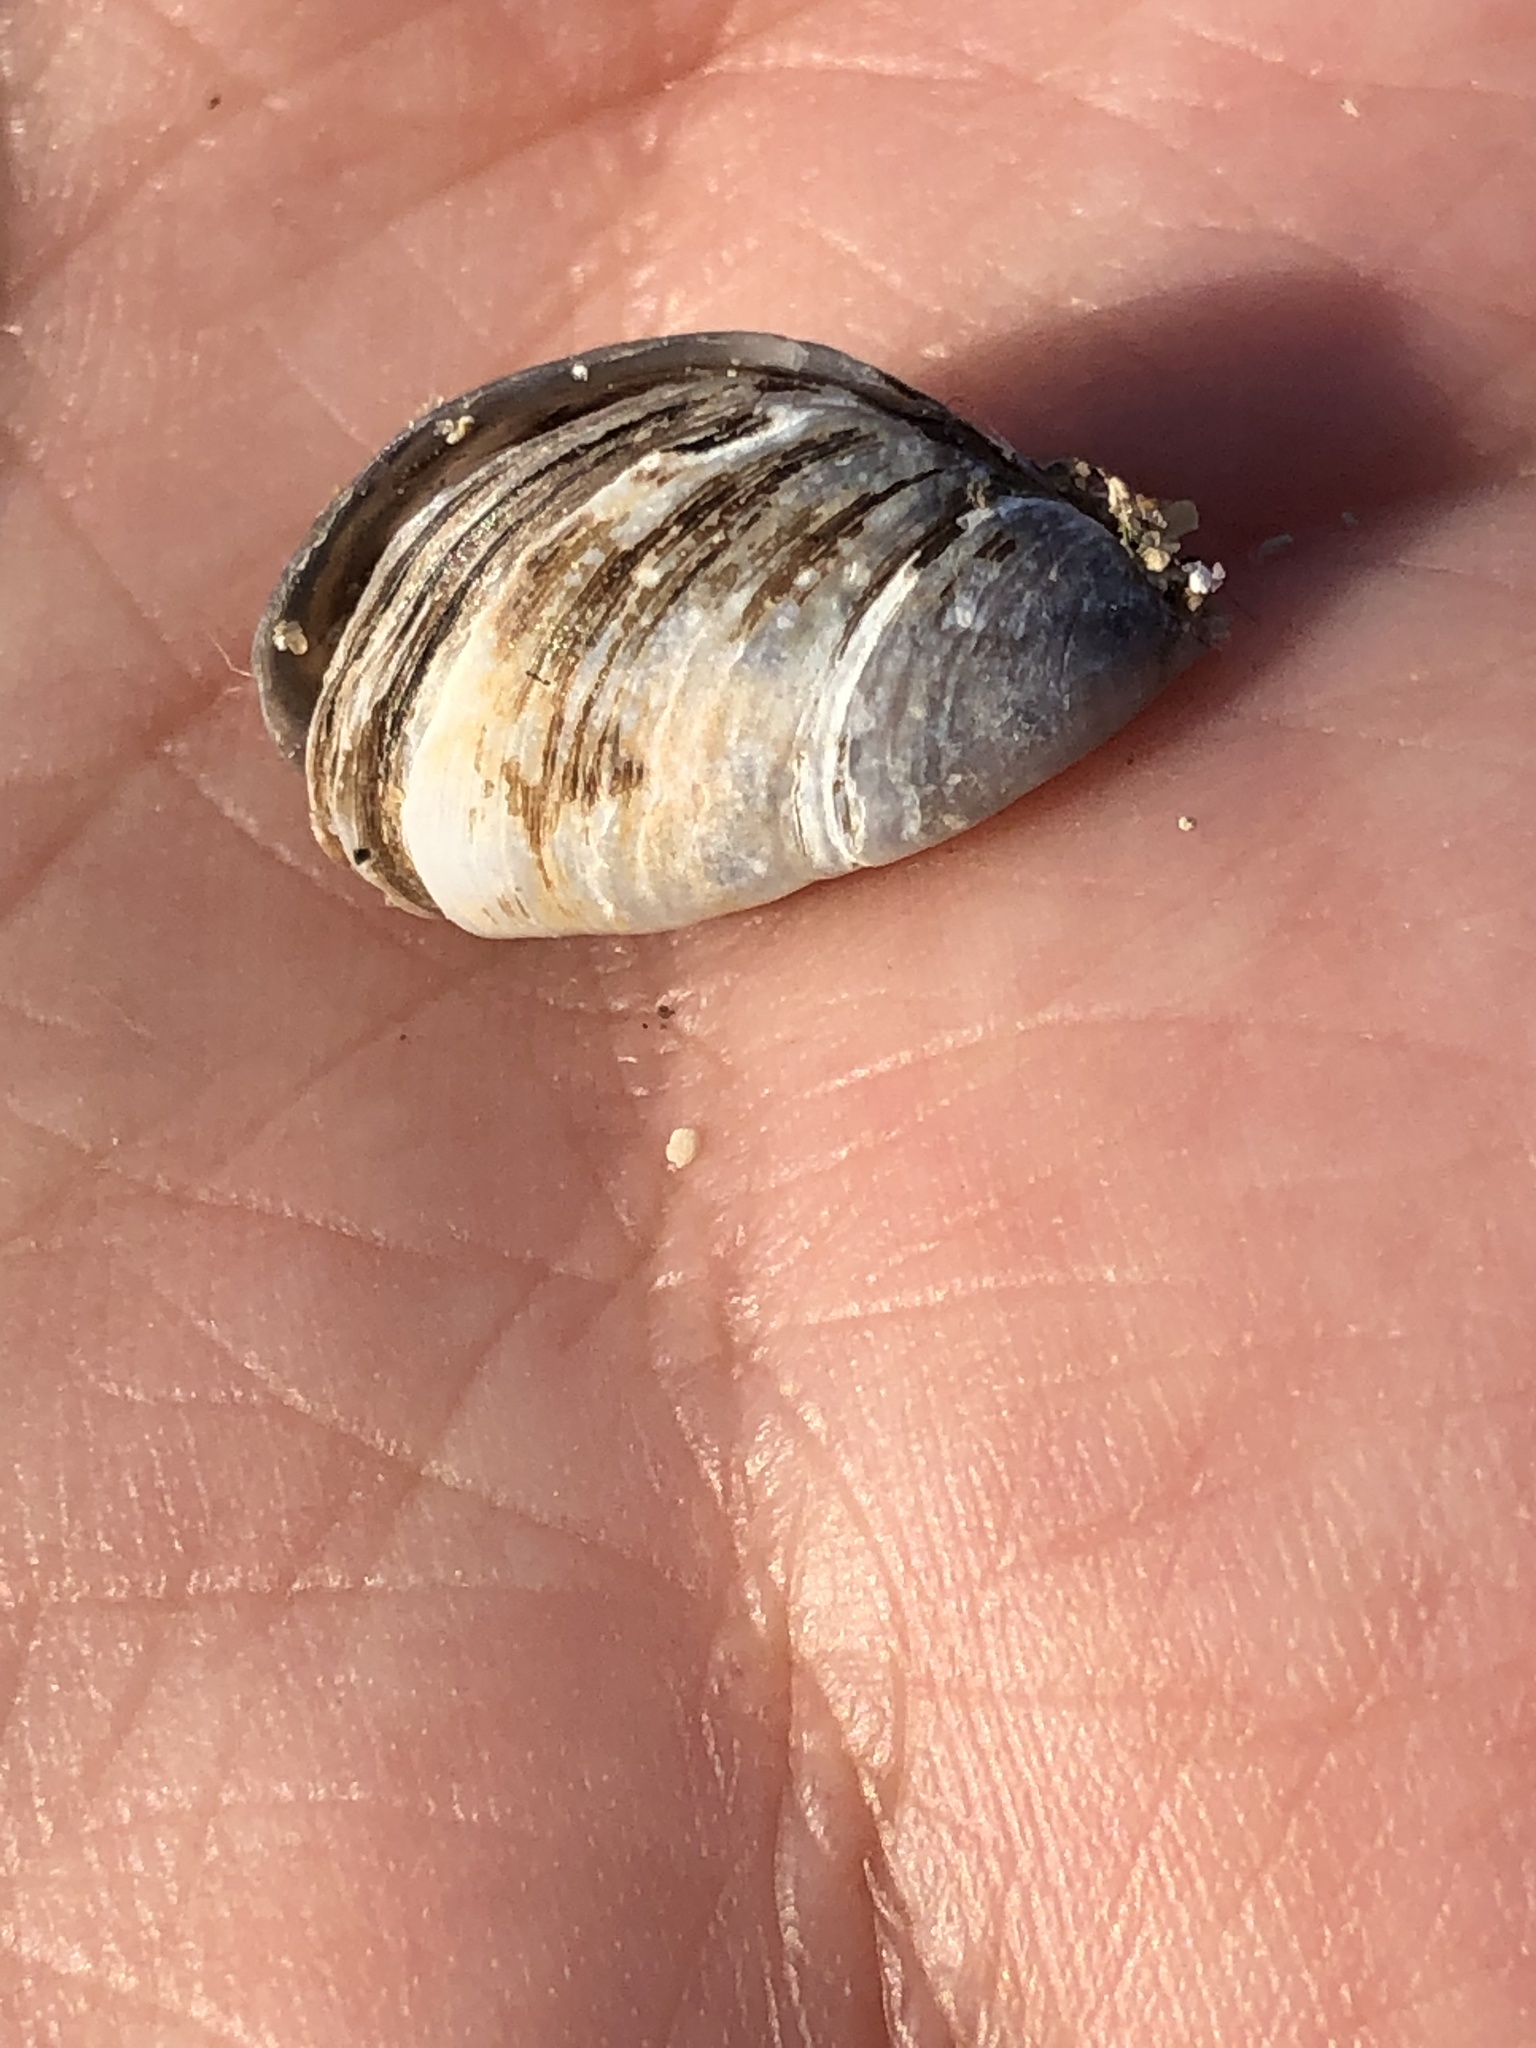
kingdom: Animalia
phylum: Mollusca
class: Bivalvia
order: Myida
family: Dreissenidae
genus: Dreissena
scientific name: Dreissena polymorpha
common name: Zebra mussel
